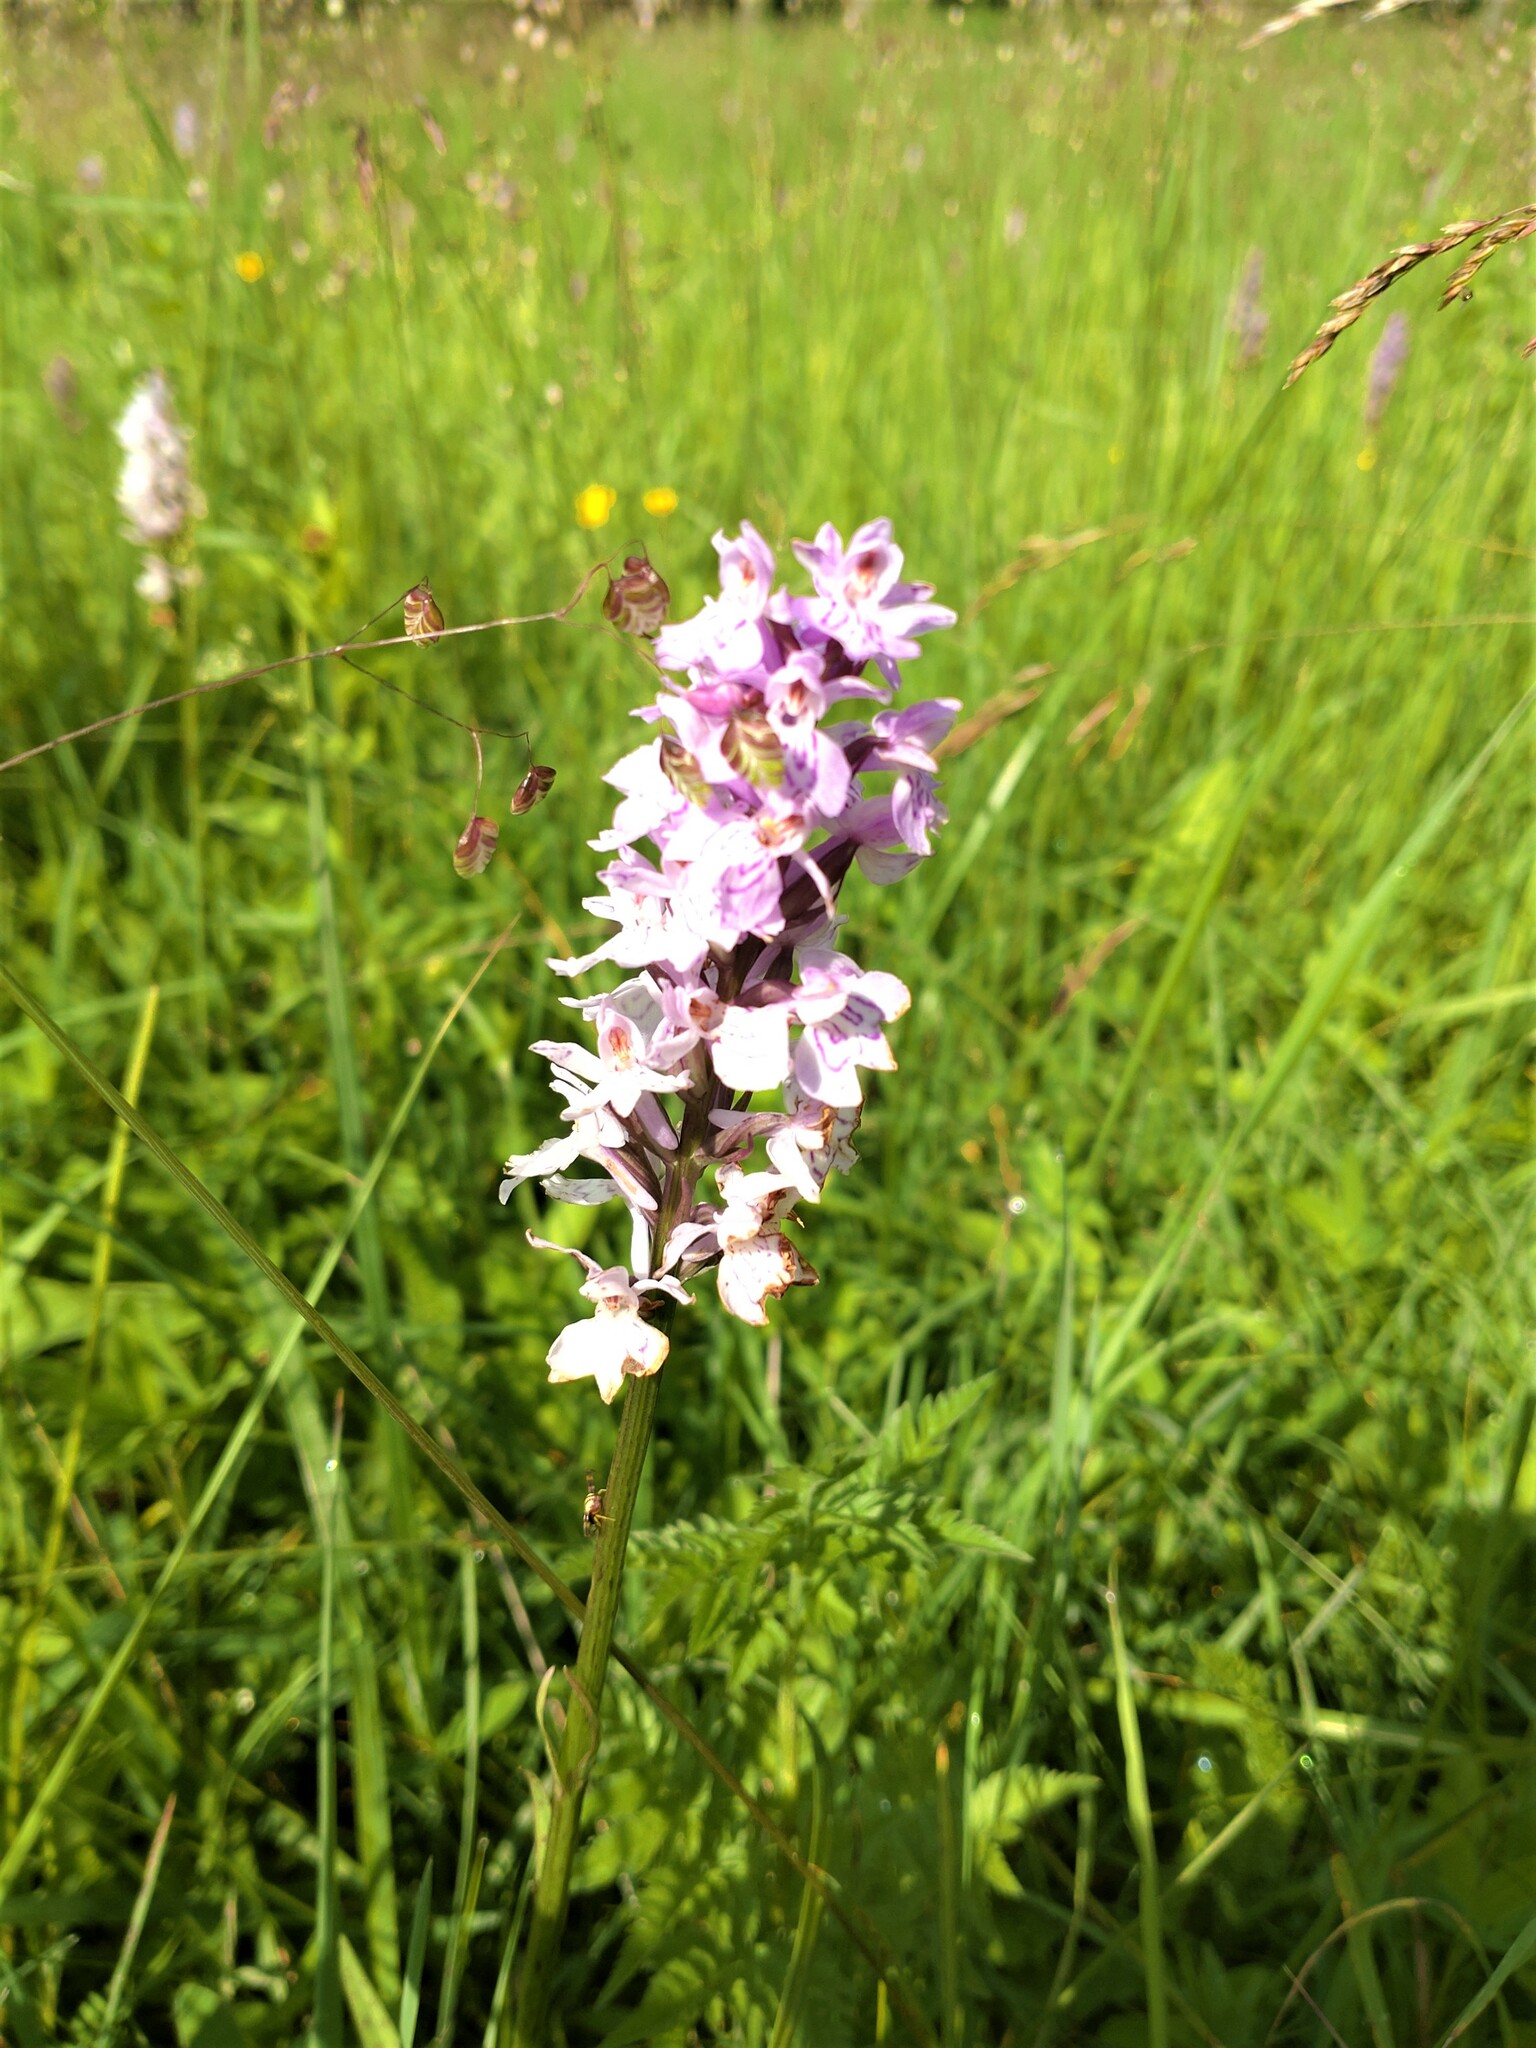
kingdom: Plantae
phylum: Tracheophyta
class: Liliopsida
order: Asparagales
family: Orchidaceae
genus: Dactylorhiza
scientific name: Dactylorhiza maculata
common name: Heath spotted-orchid
